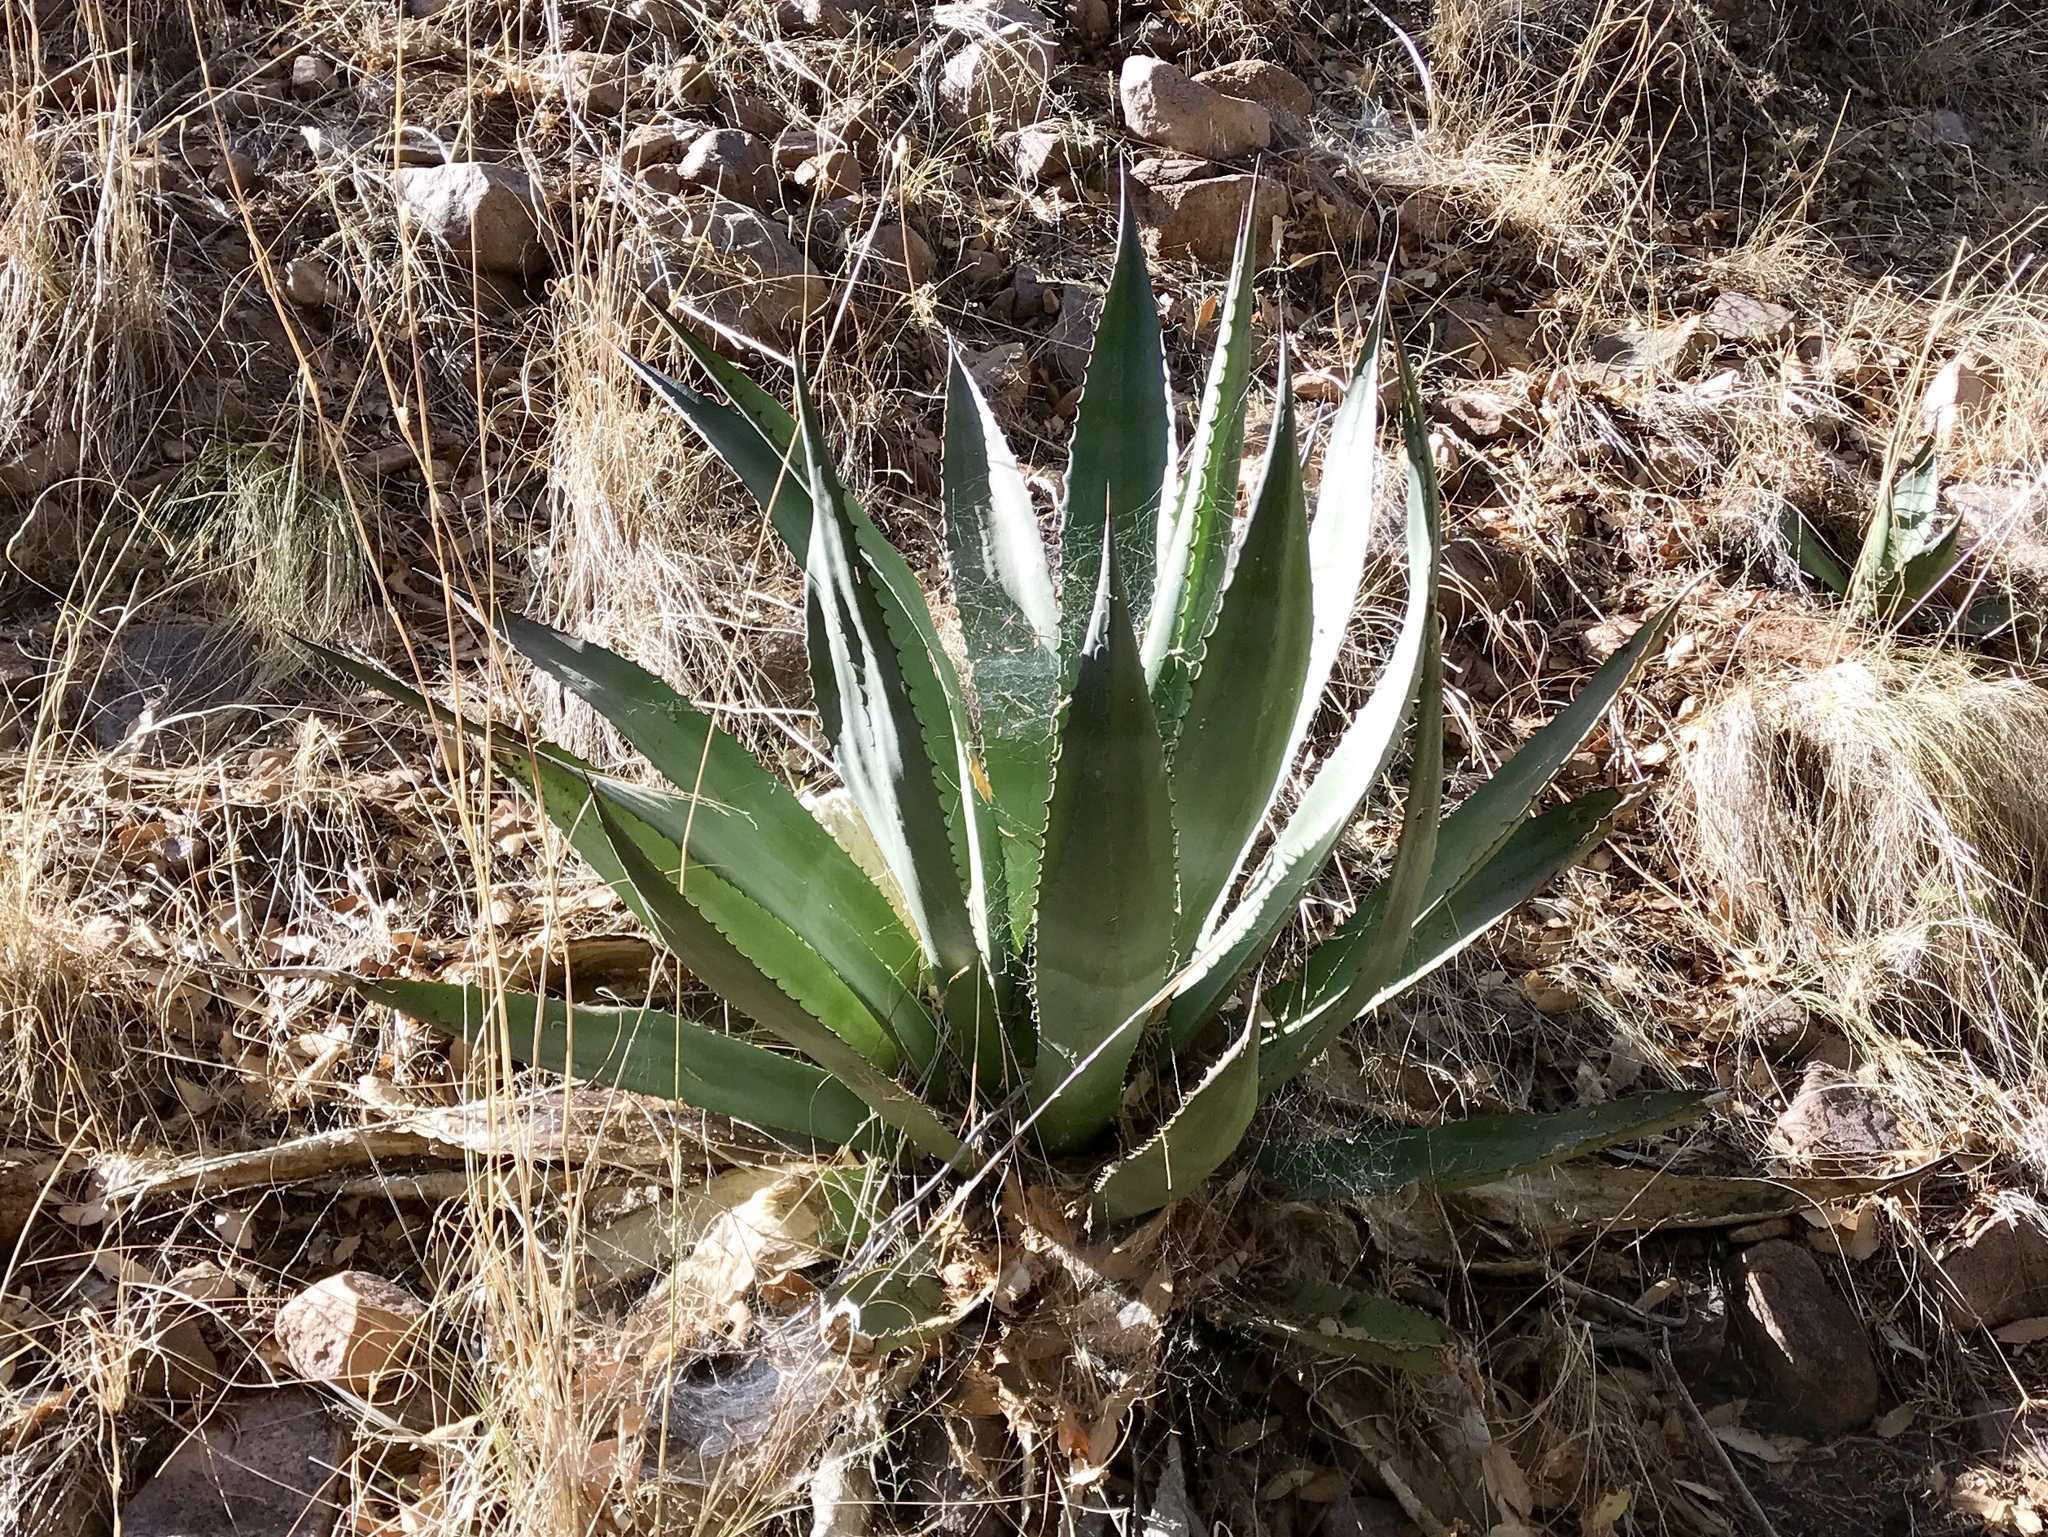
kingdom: Plantae
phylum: Tracheophyta
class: Liliopsida
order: Asparagales
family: Asparagaceae
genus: Agave
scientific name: Agave palmeri
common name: Palmer agave
